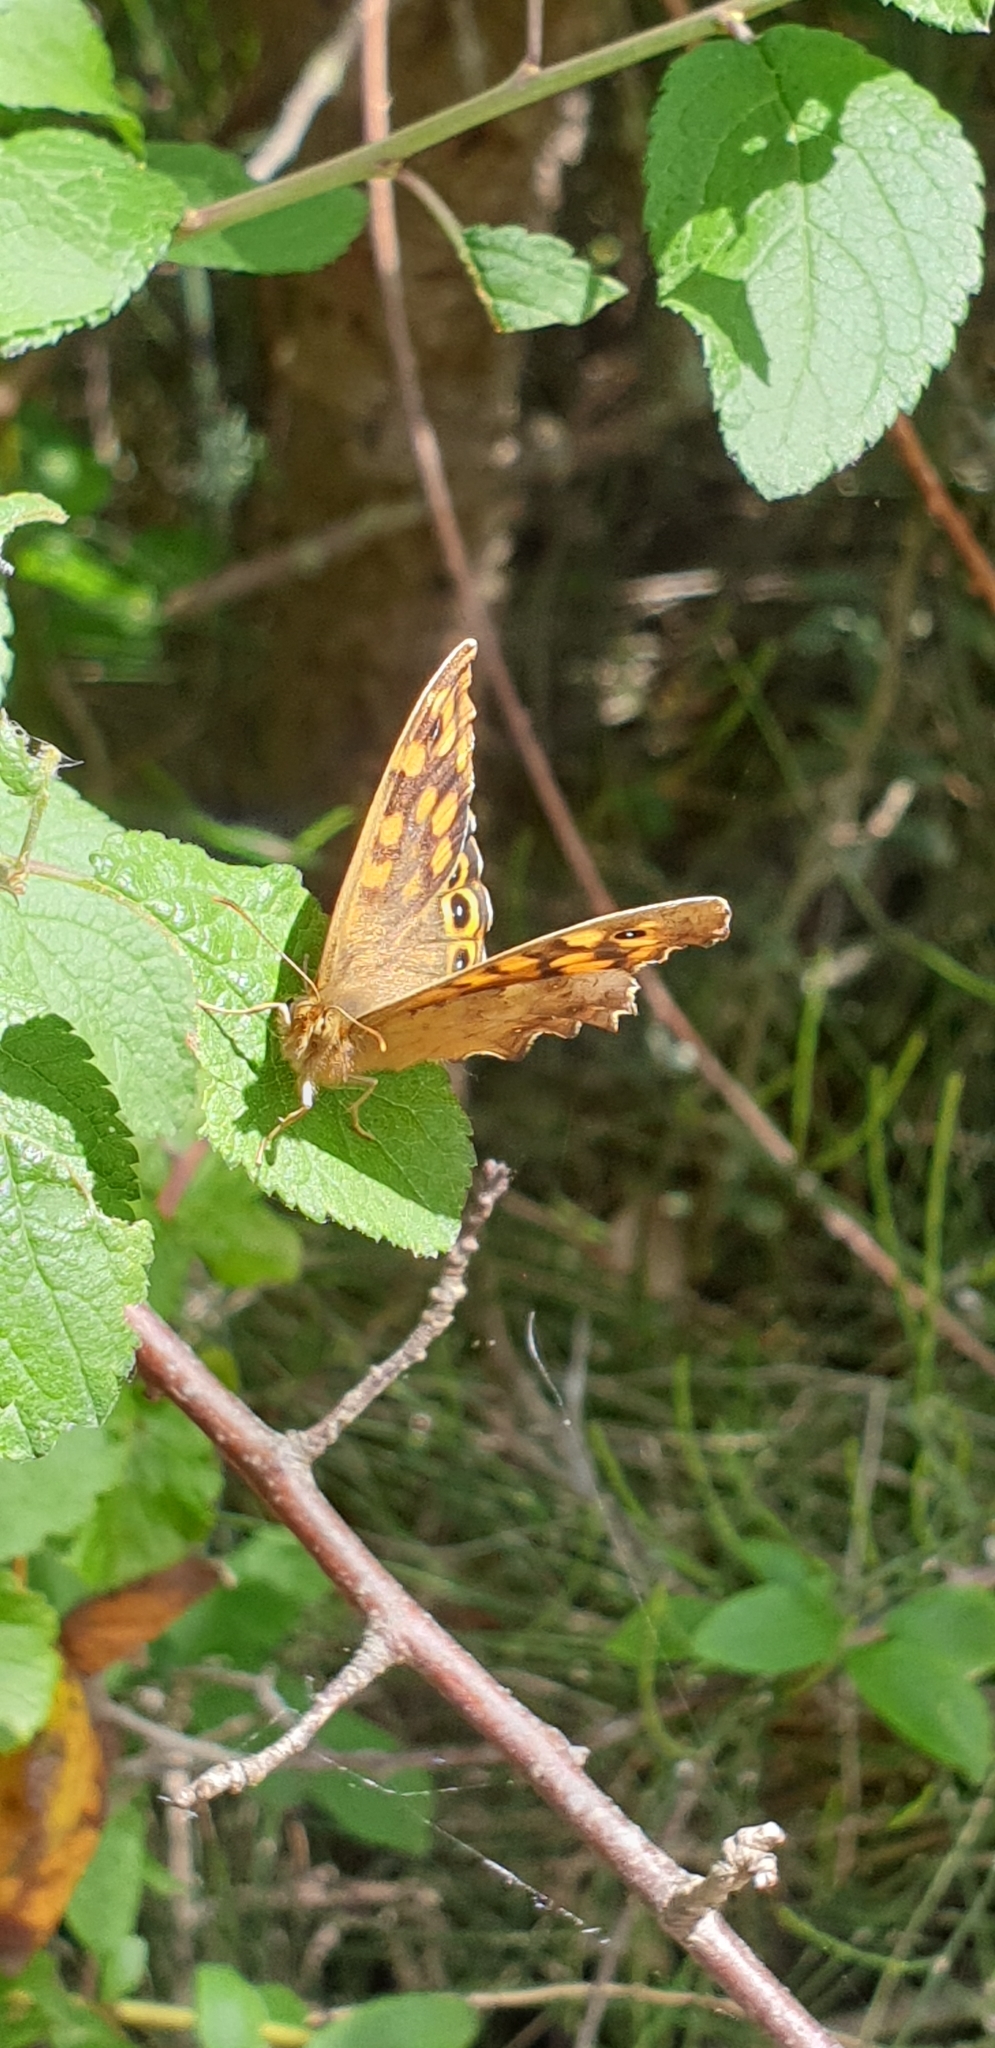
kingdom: Animalia
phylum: Arthropoda
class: Insecta
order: Lepidoptera
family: Nymphalidae
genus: Pararge
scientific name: Pararge aegeria
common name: Speckled wood
